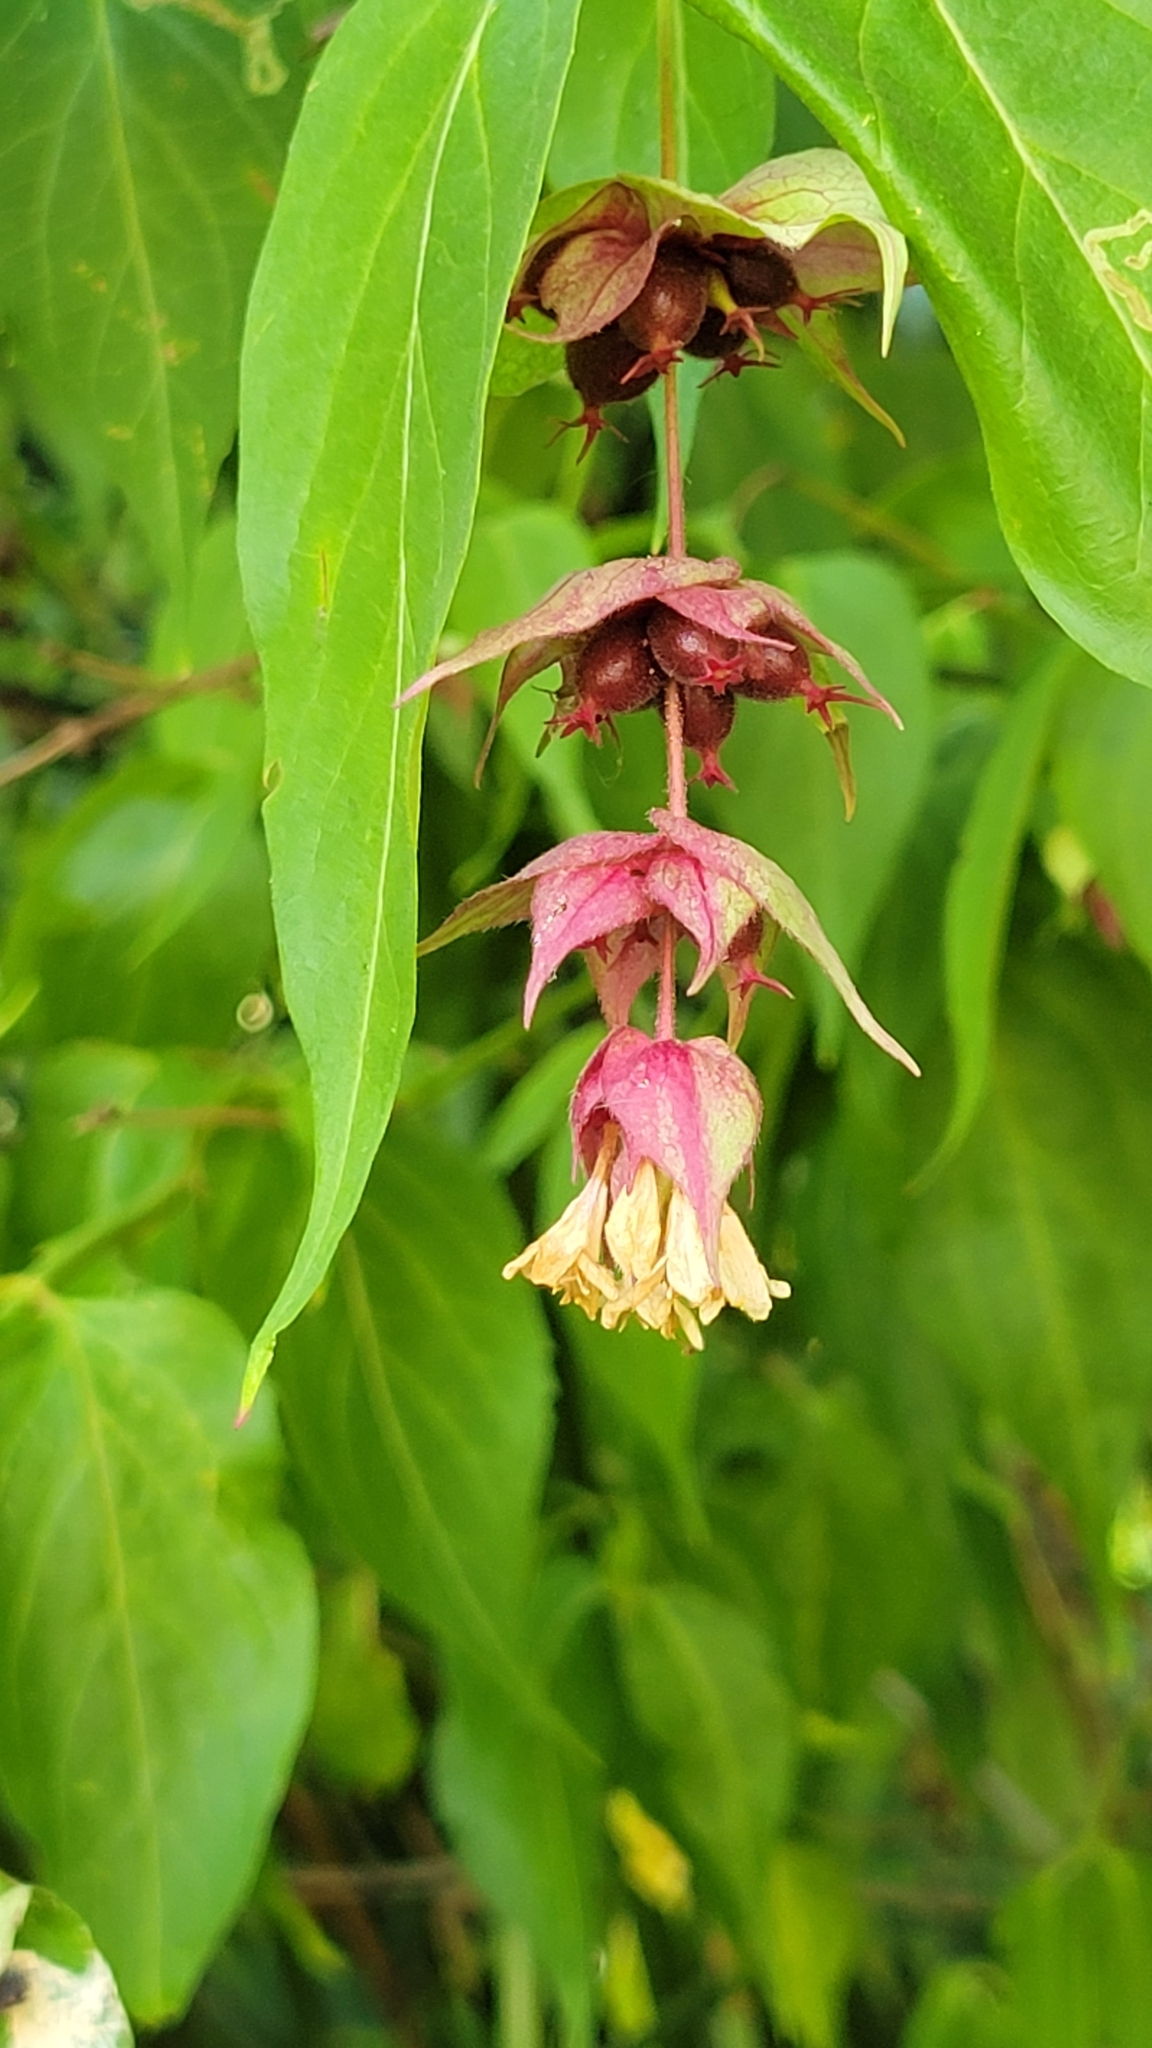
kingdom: Plantae
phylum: Tracheophyta
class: Magnoliopsida
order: Dipsacales
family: Caprifoliaceae
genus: Leycesteria
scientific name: Leycesteria formosa
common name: Himalayan honeysuckle
